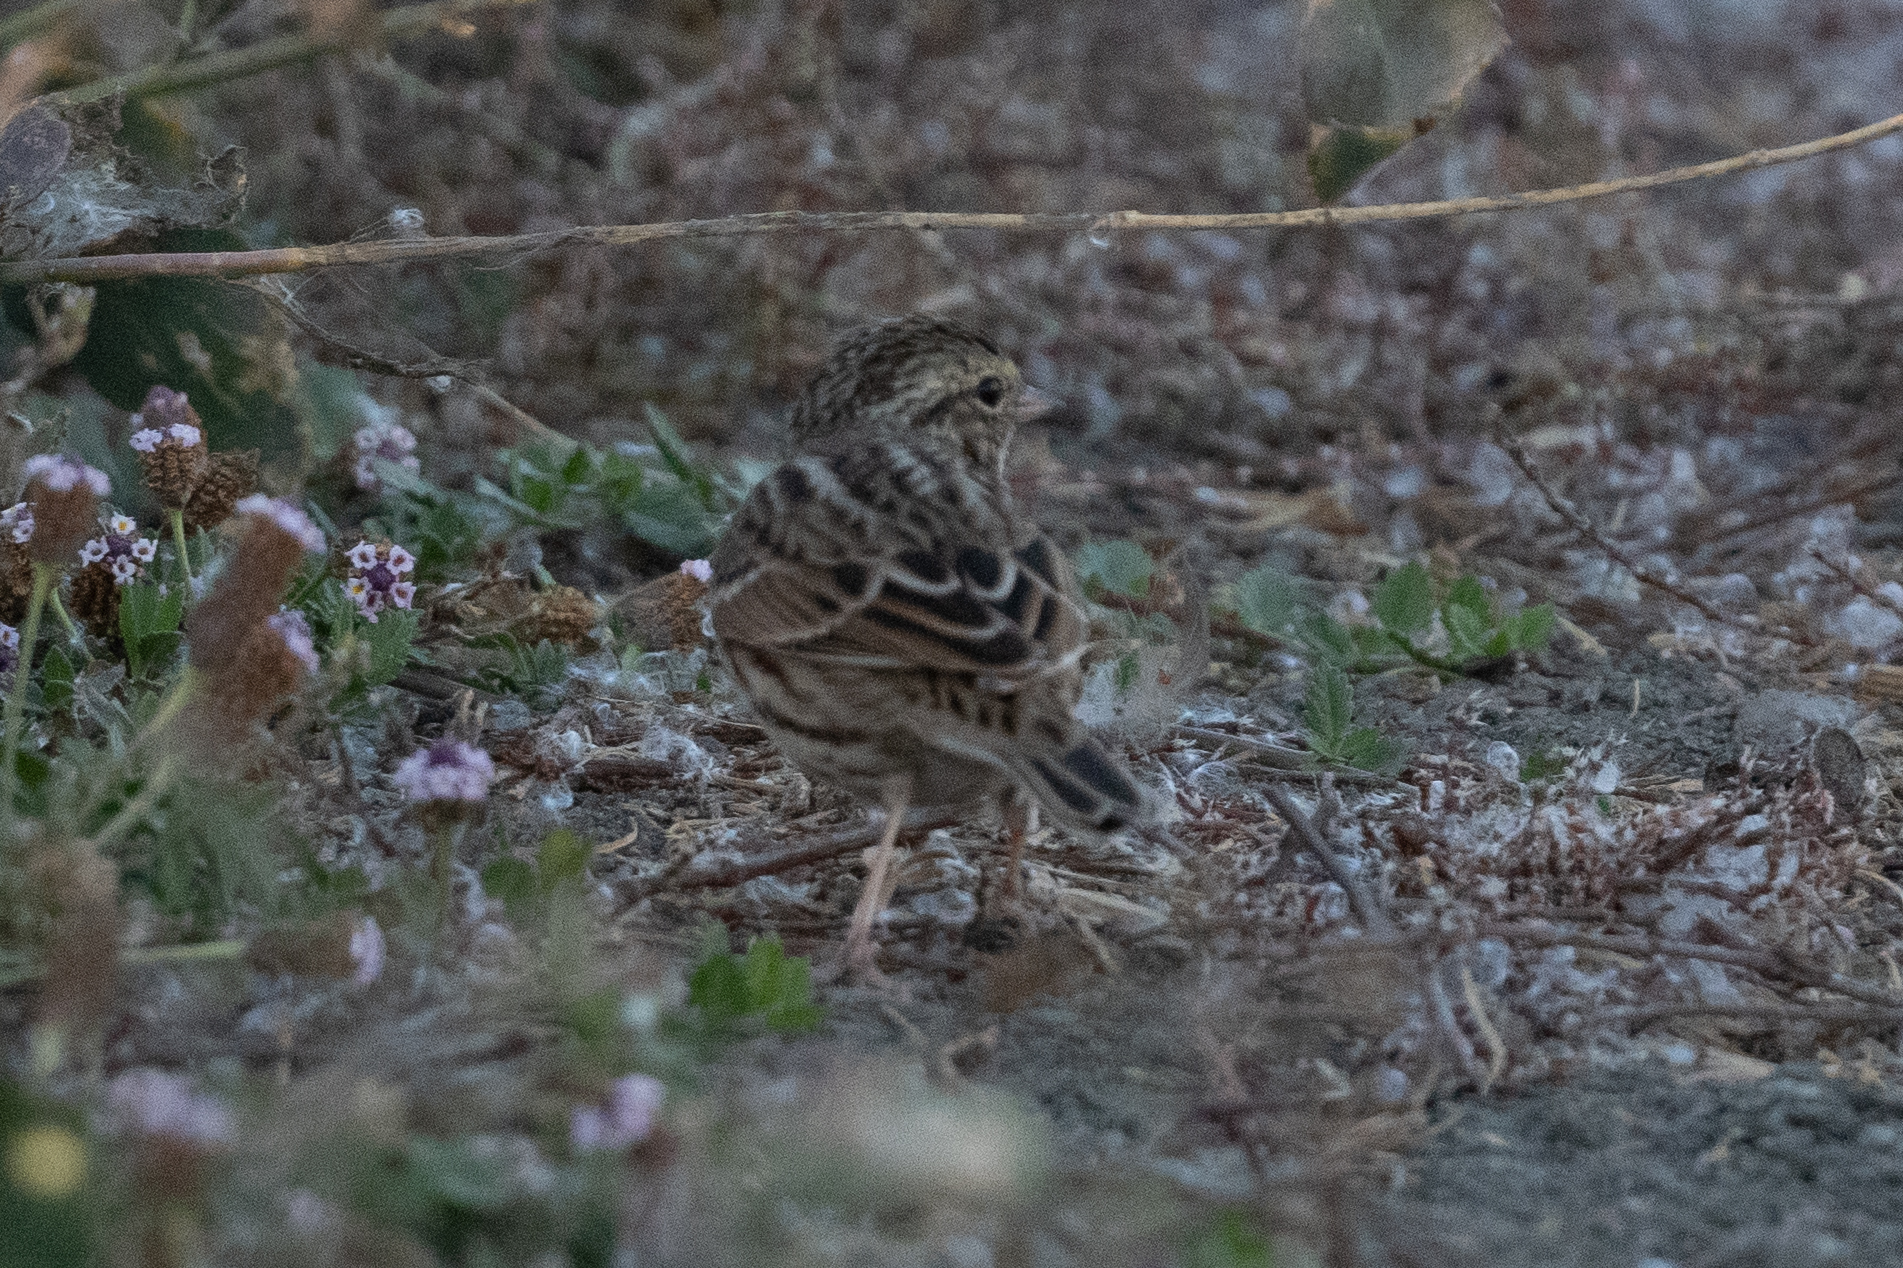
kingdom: Animalia
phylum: Chordata
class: Aves
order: Passeriformes
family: Passerellidae
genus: Passerculus
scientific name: Passerculus sandwichensis
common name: Savannah sparrow
